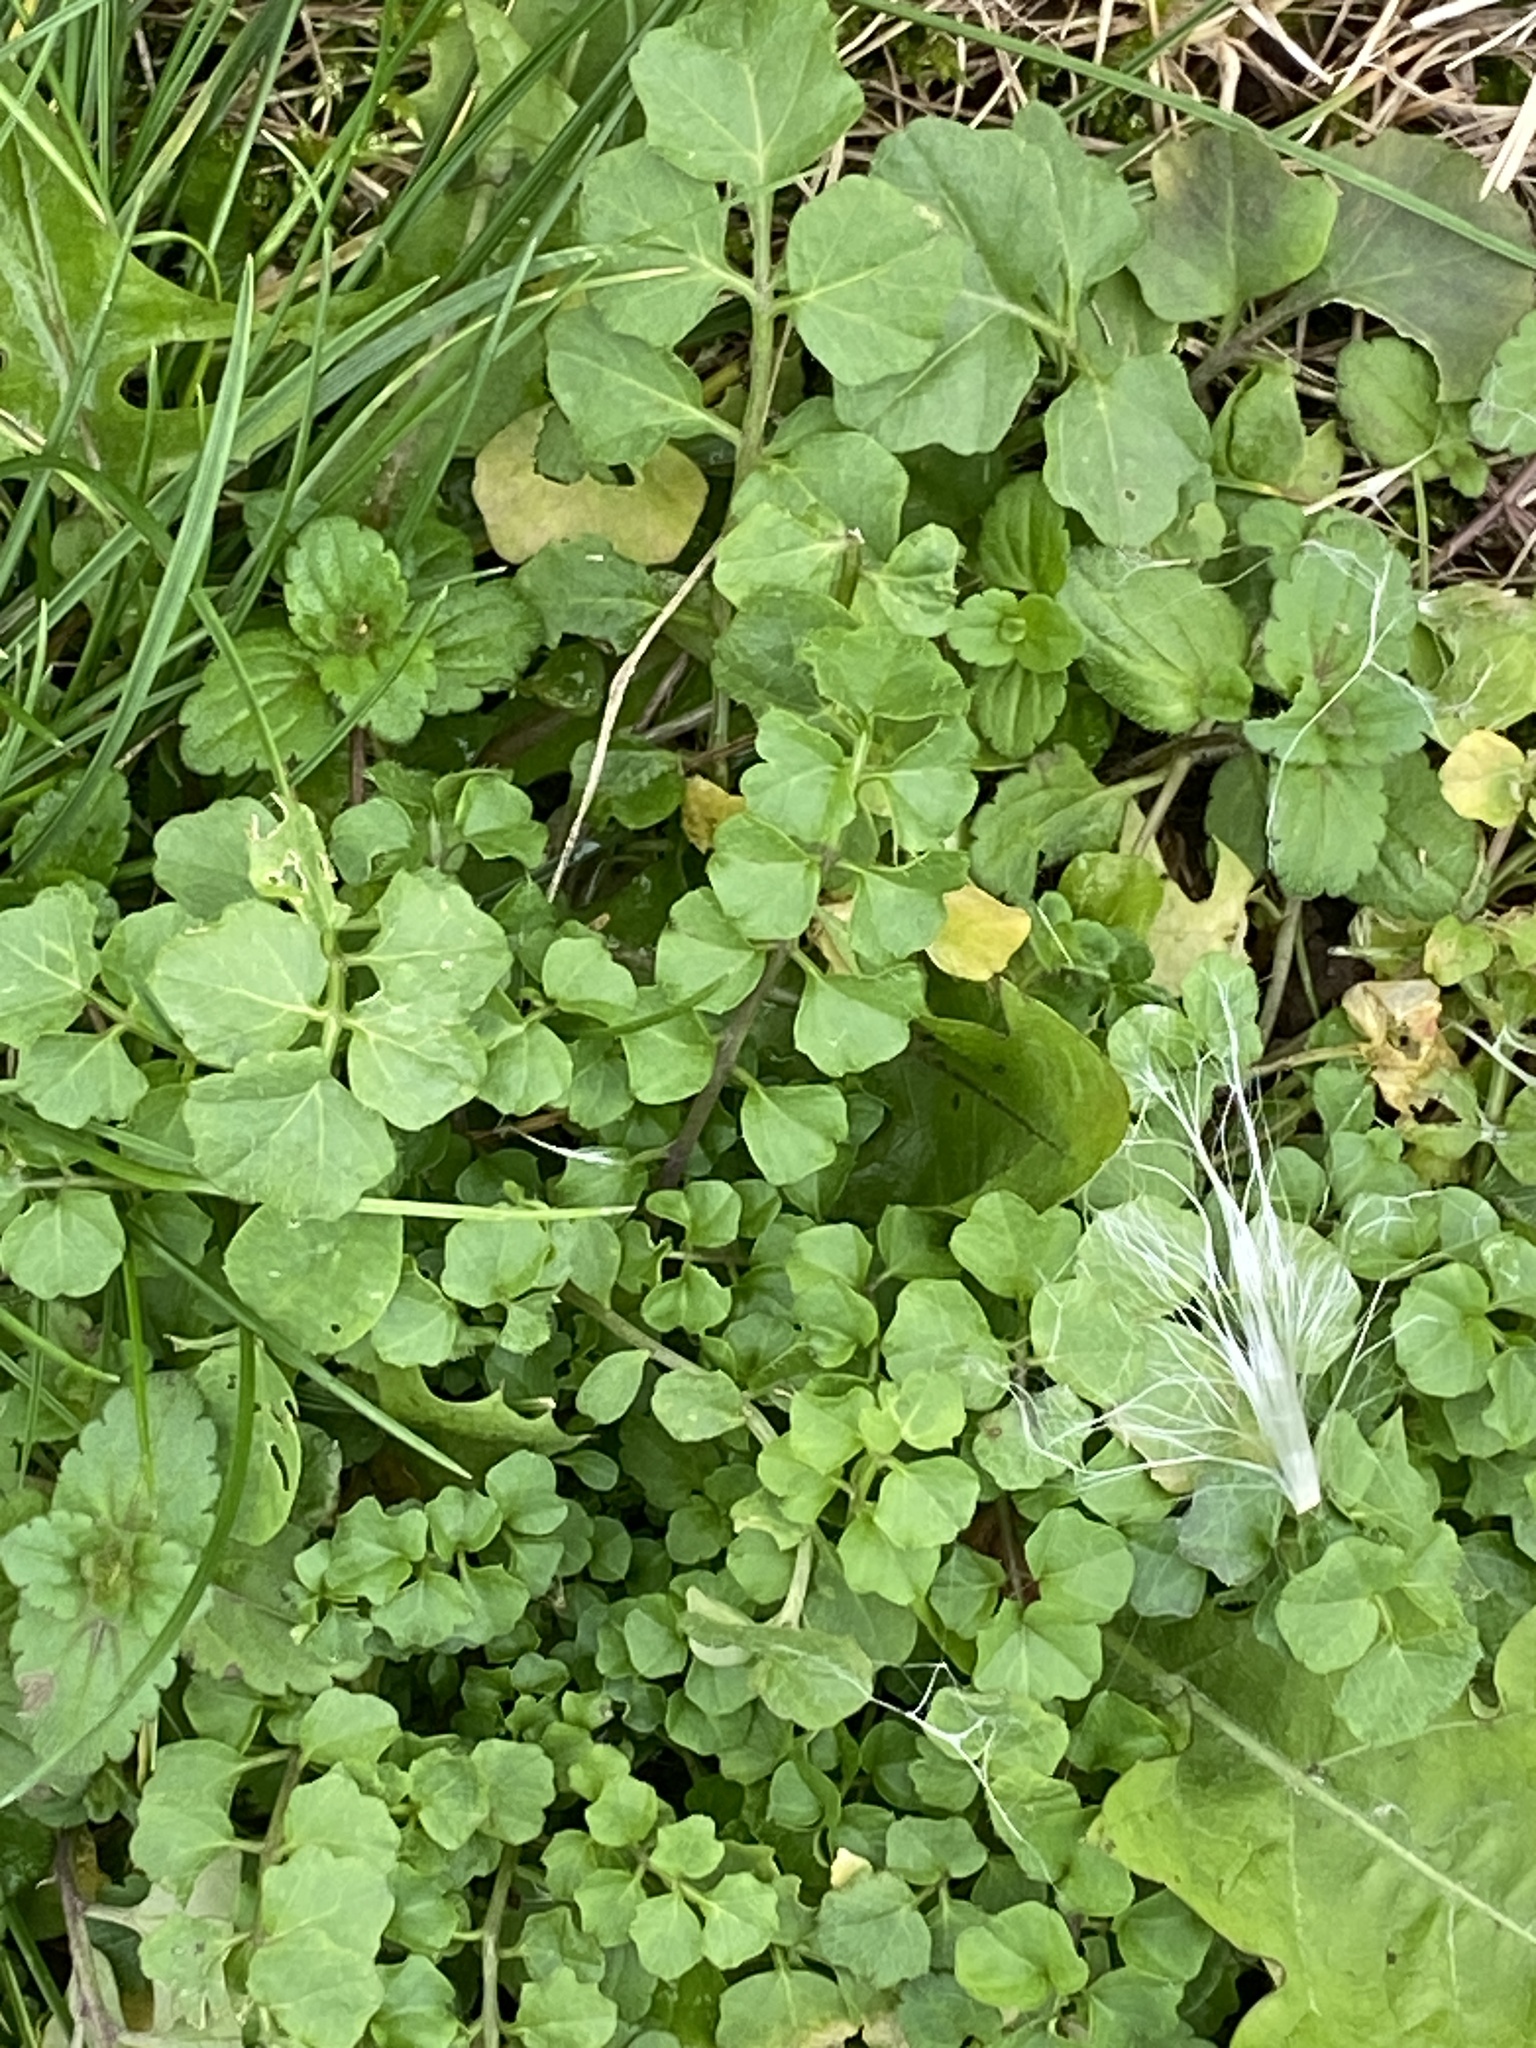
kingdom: Plantae
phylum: Tracheophyta
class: Magnoliopsida
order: Brassicales
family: Brassicaceae
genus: Cardamine
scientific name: Cardamine hirsuta
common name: Hairy bittercress
